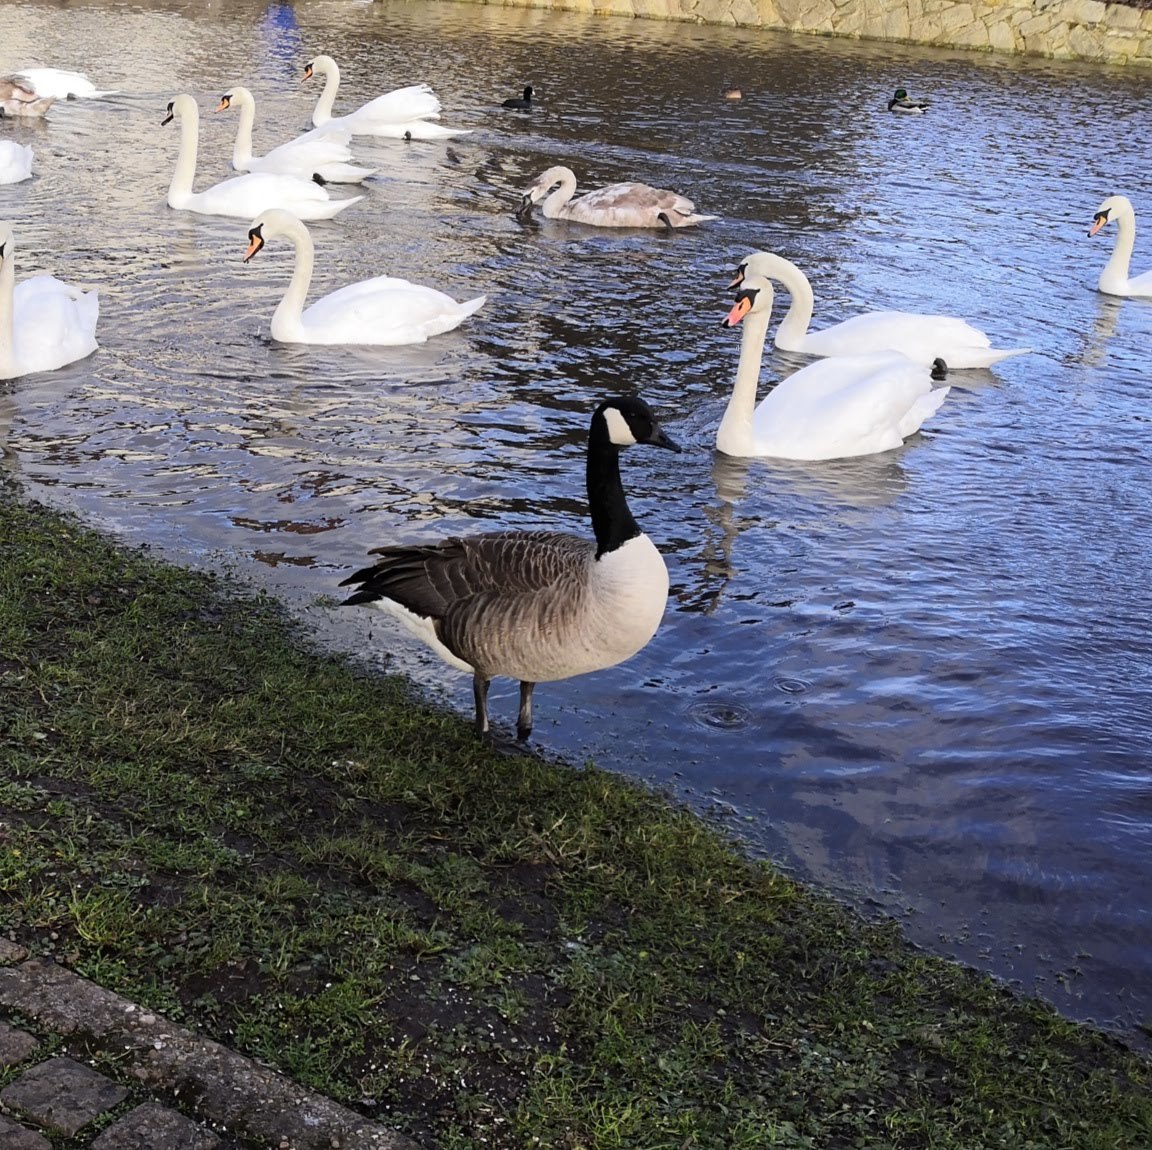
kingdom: Animalia
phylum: Chordata
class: Aves
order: Anseriformes
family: Anatidae
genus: Branta
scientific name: Branta canadensis
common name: Canada goose
